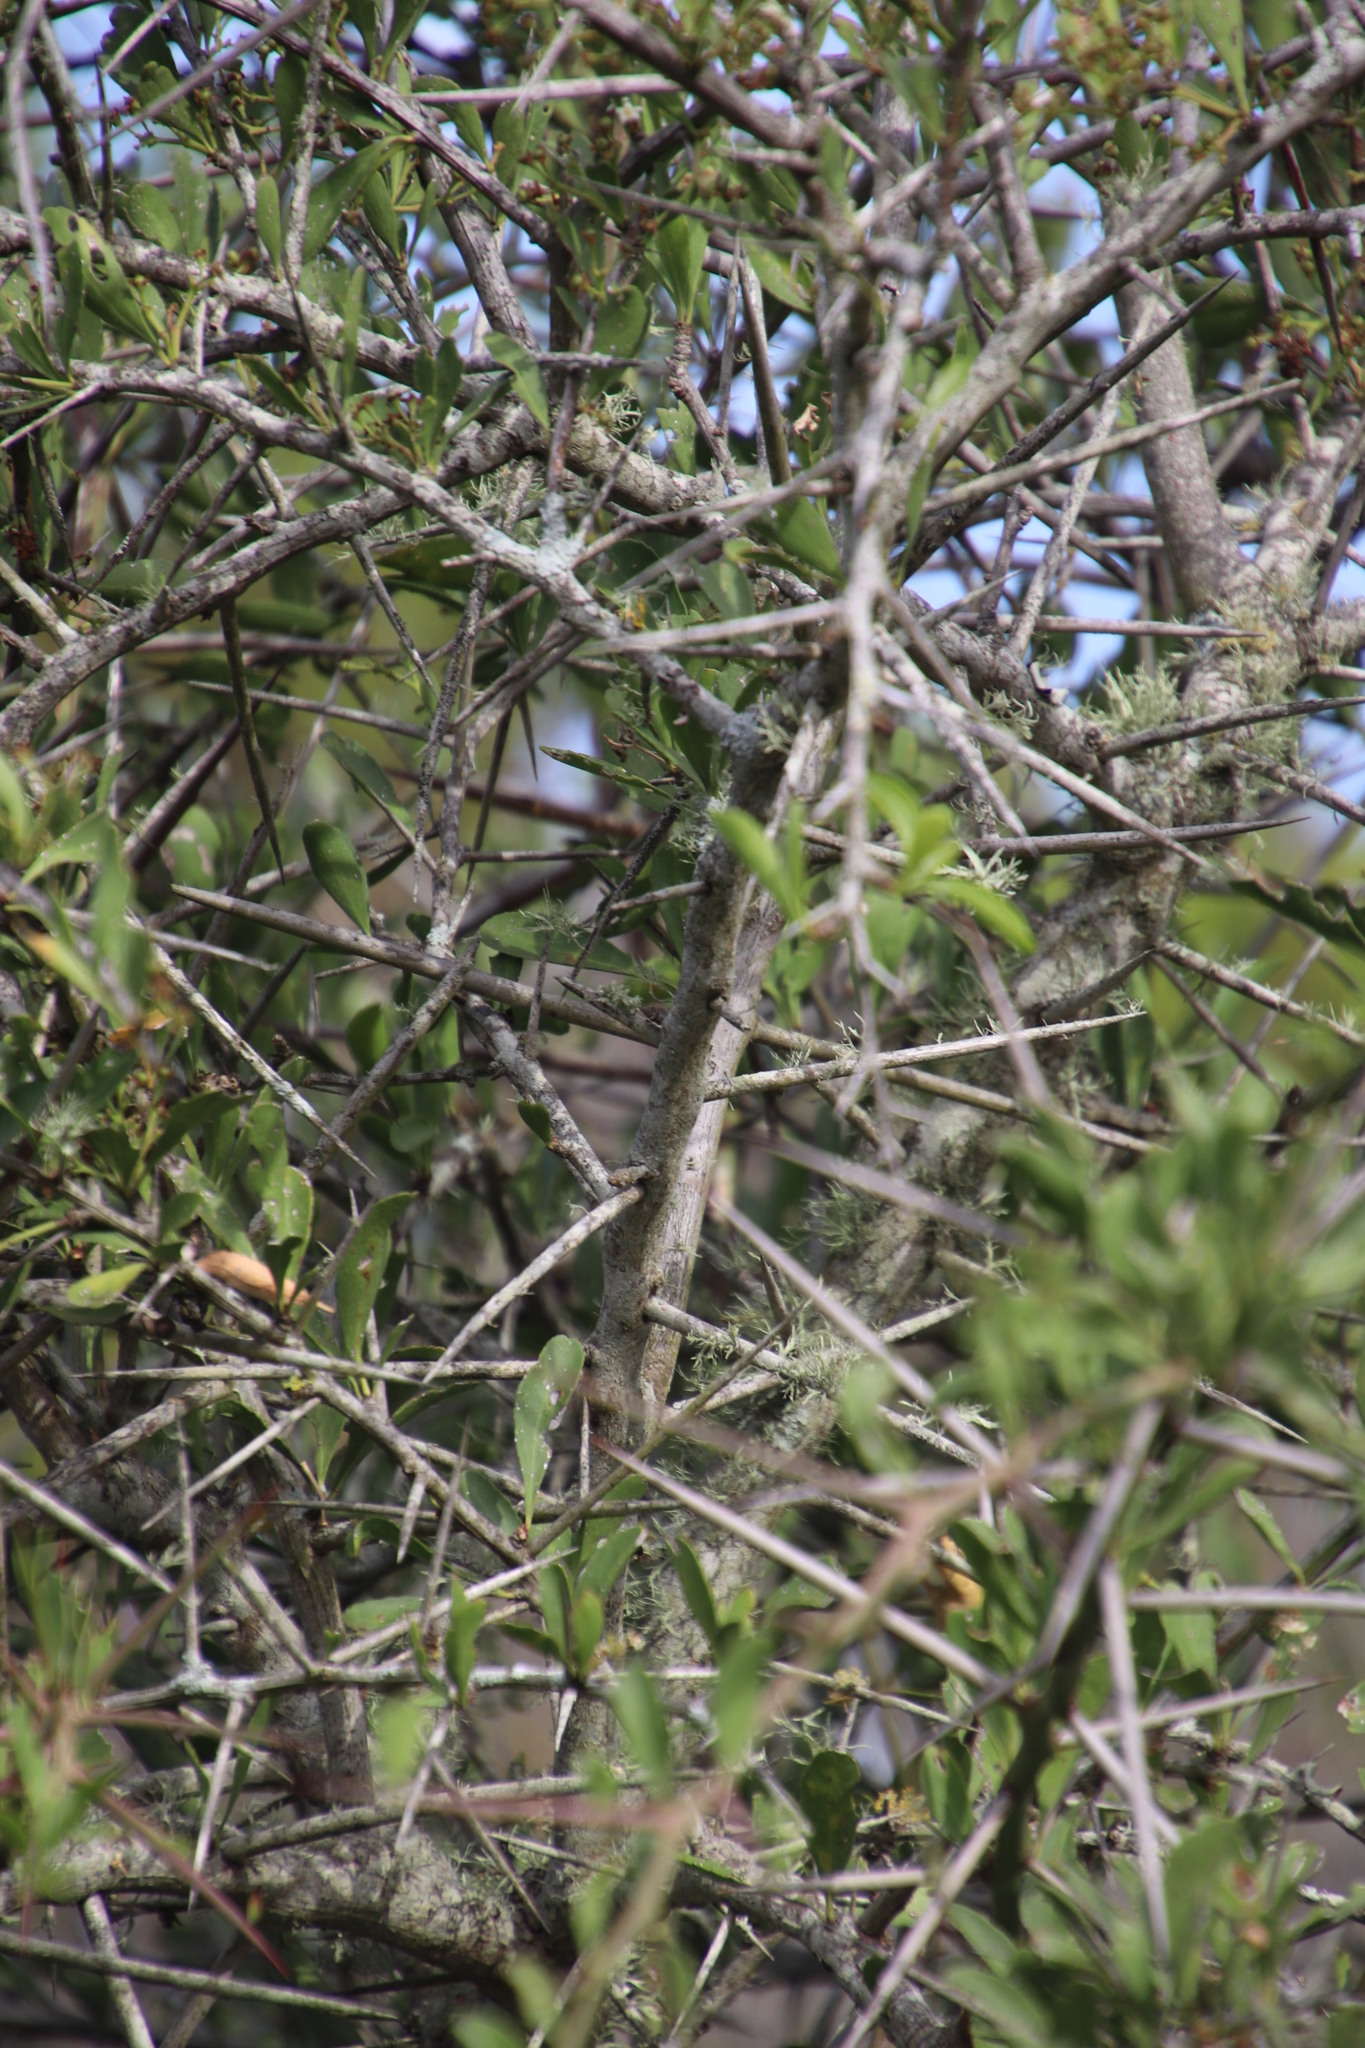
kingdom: Plantae
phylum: Tracheophyta
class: Magnoliopsida
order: Celastrales
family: Celastraceae
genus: Gymnosporia
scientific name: Gymnosporia buxifolia
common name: Common spike-thorn
